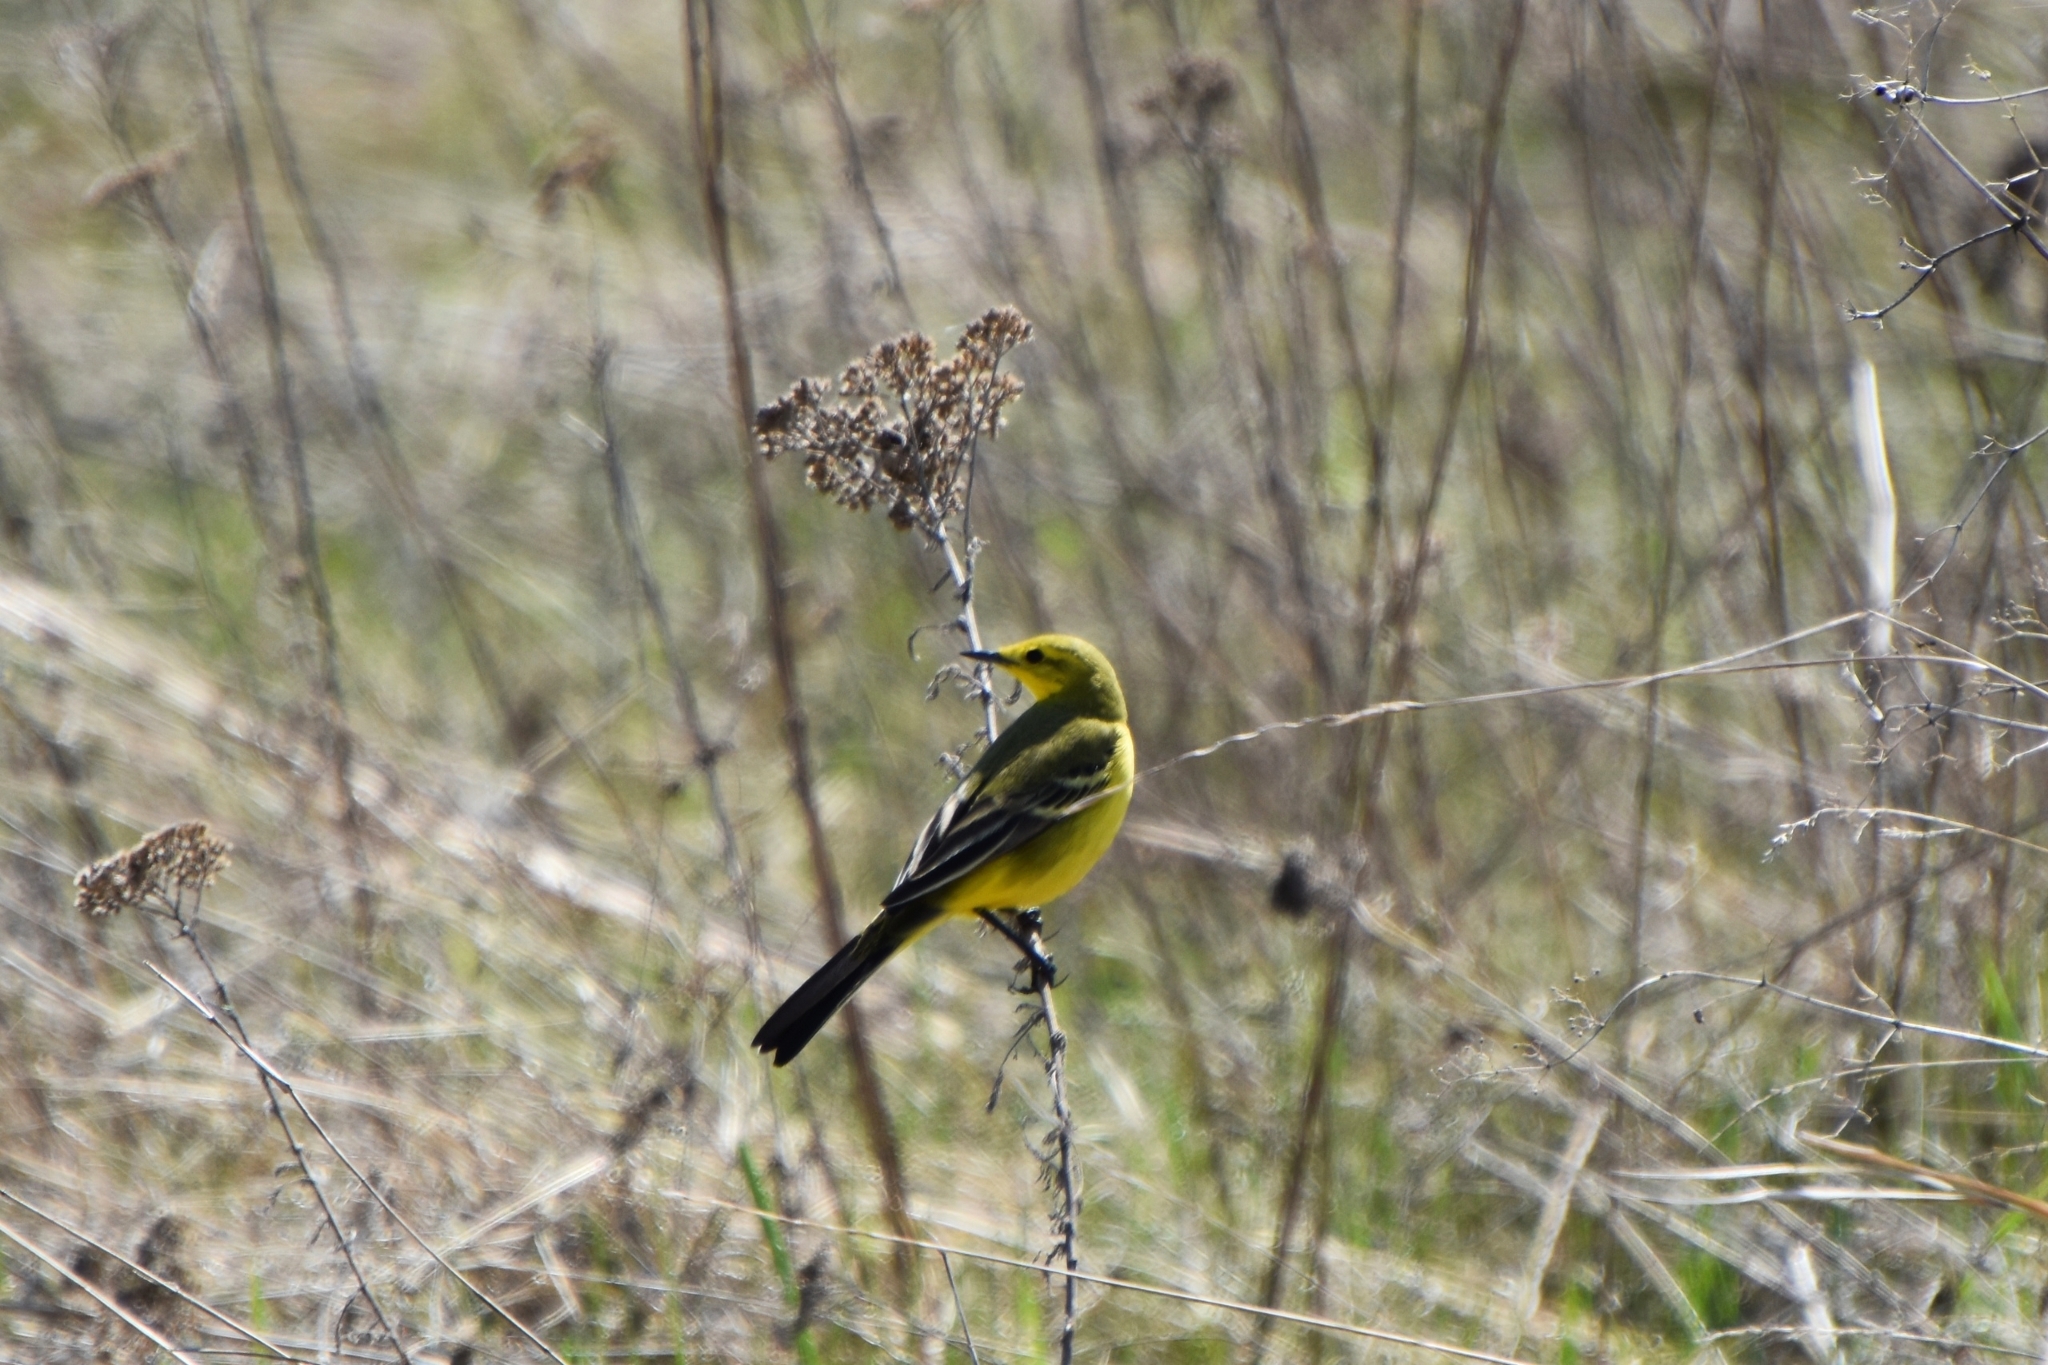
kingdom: Animalia
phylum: Chordata
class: Aves
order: Passeriformes
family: Motacillidae
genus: Motacilla
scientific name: Motacilla flava
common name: Western yellow wagtail
